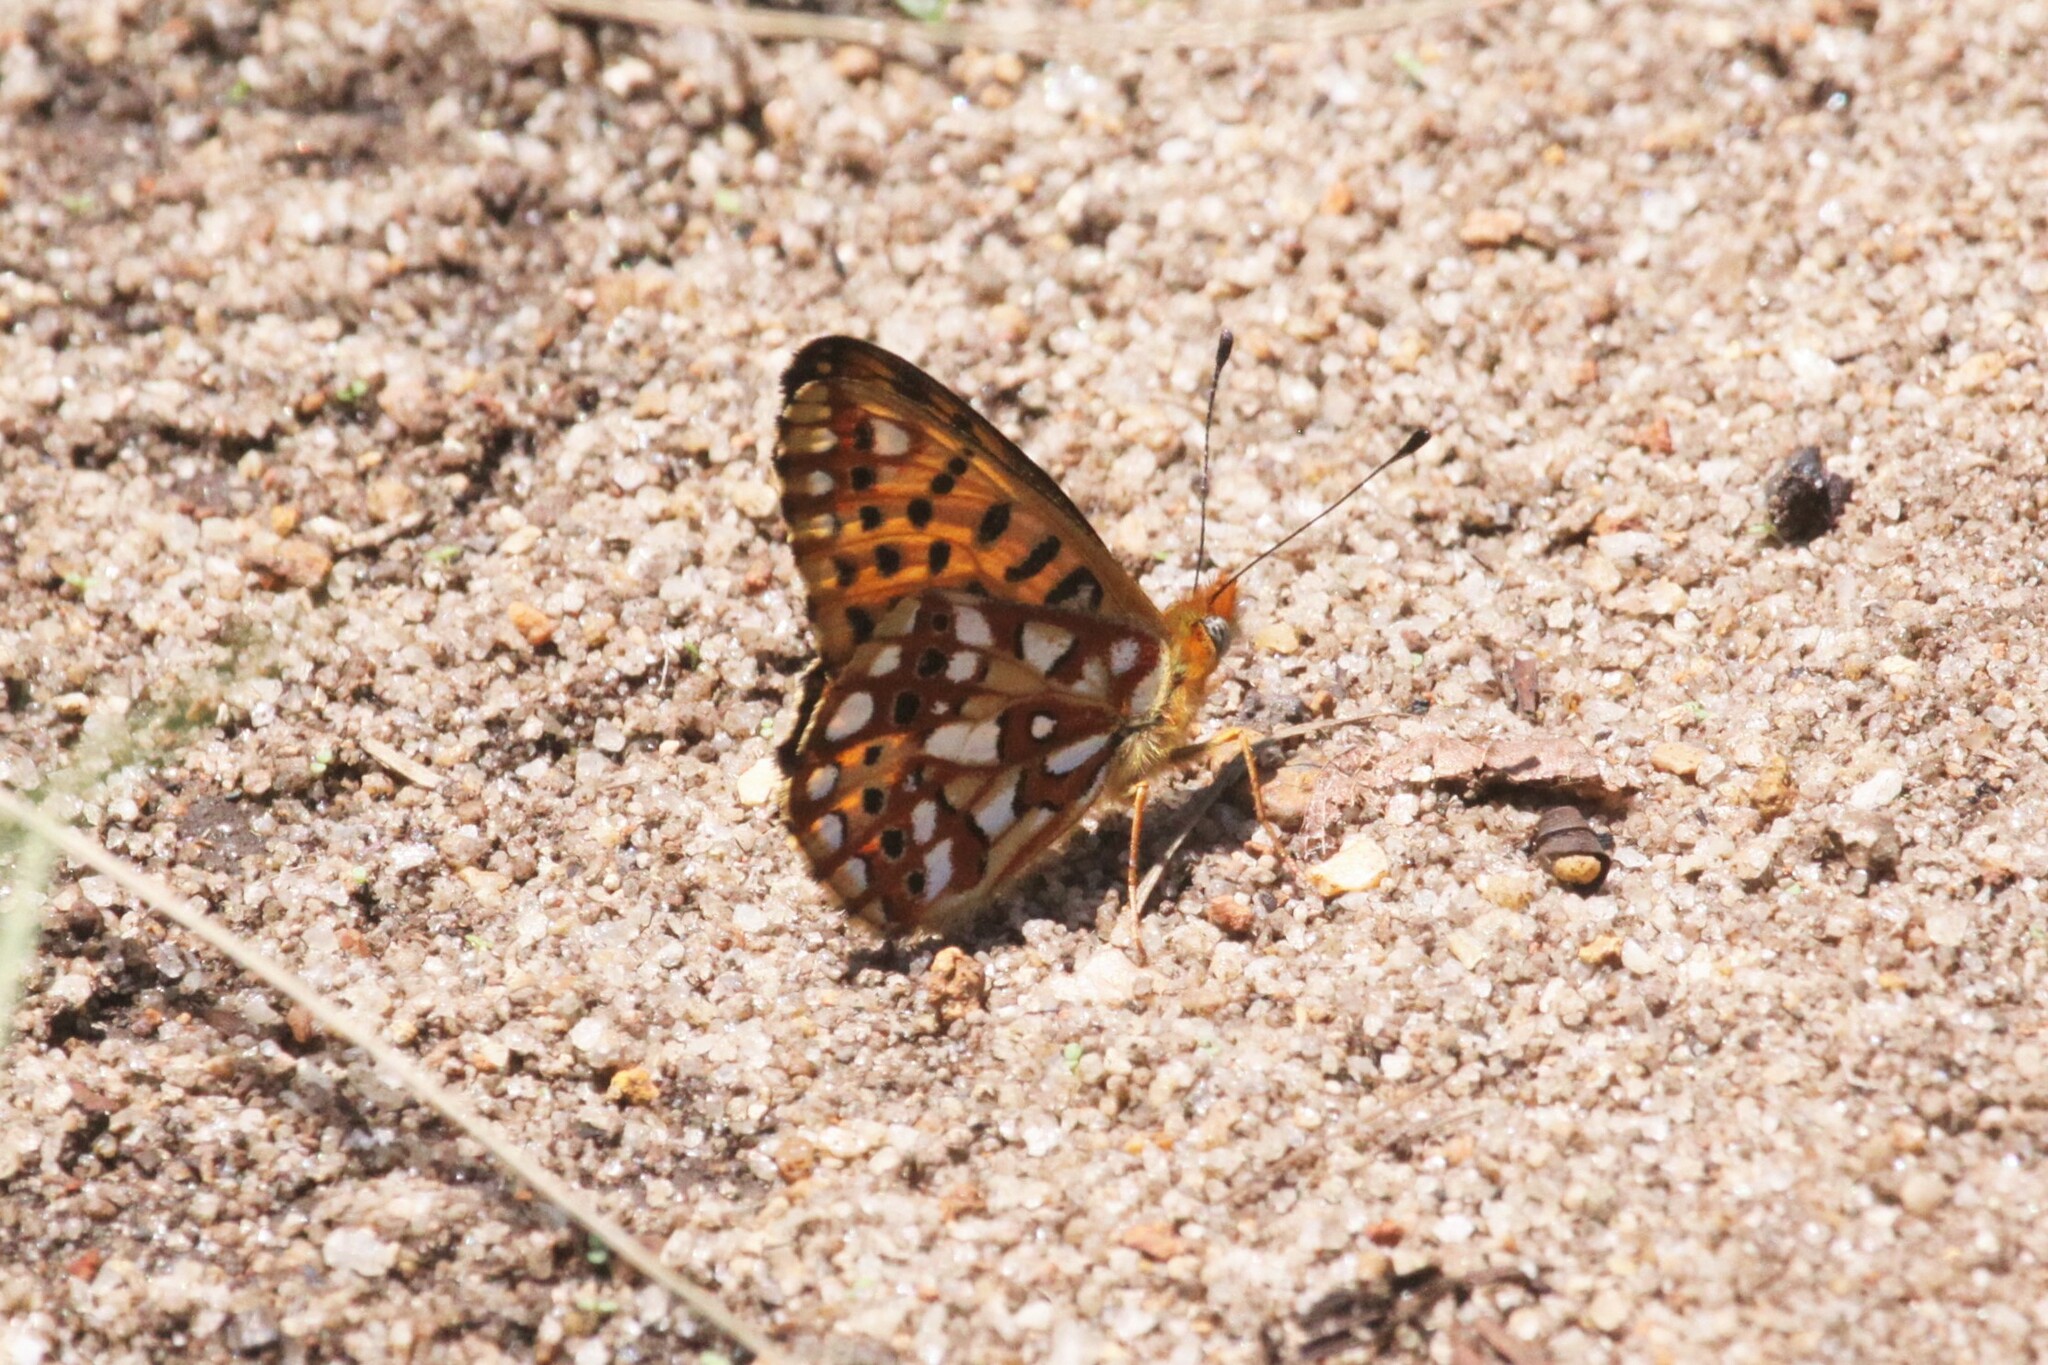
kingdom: Animalia
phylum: Arthropoda
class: Insecta
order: Lepidoptera
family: Nymphalidae
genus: Issoria
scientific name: Issoria smaragdifera
